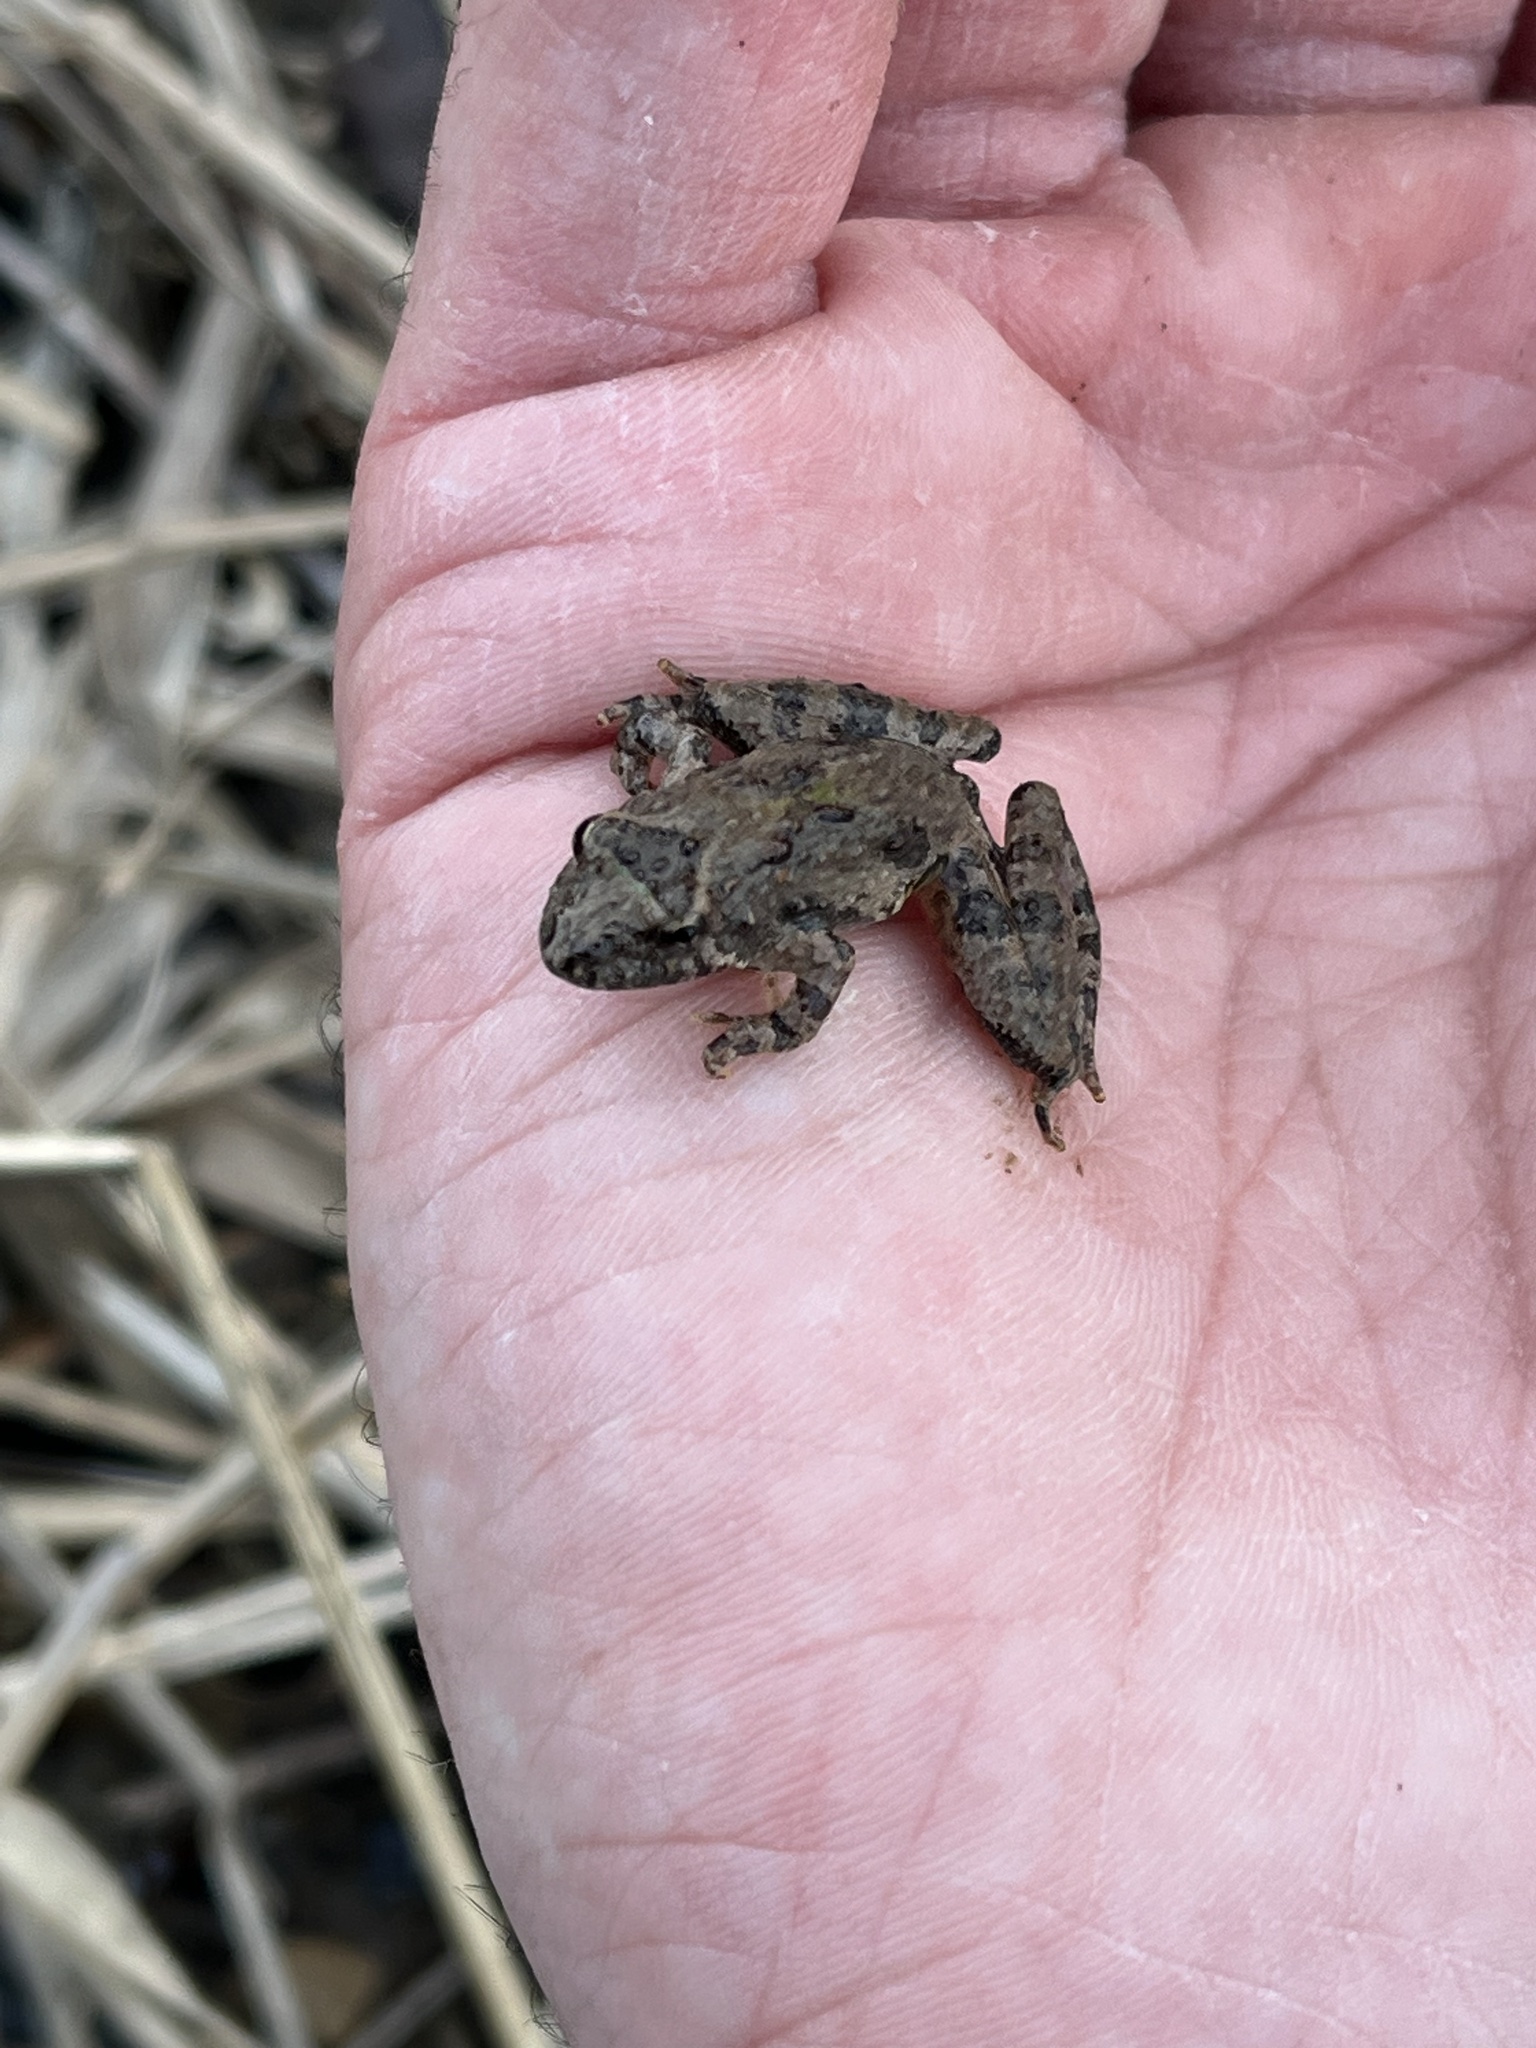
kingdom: Animalia
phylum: Chordata
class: Amphibia
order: Anura
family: Hylidae
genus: Acris
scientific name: Acris blanchardi
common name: Blanchard's cricket frog
